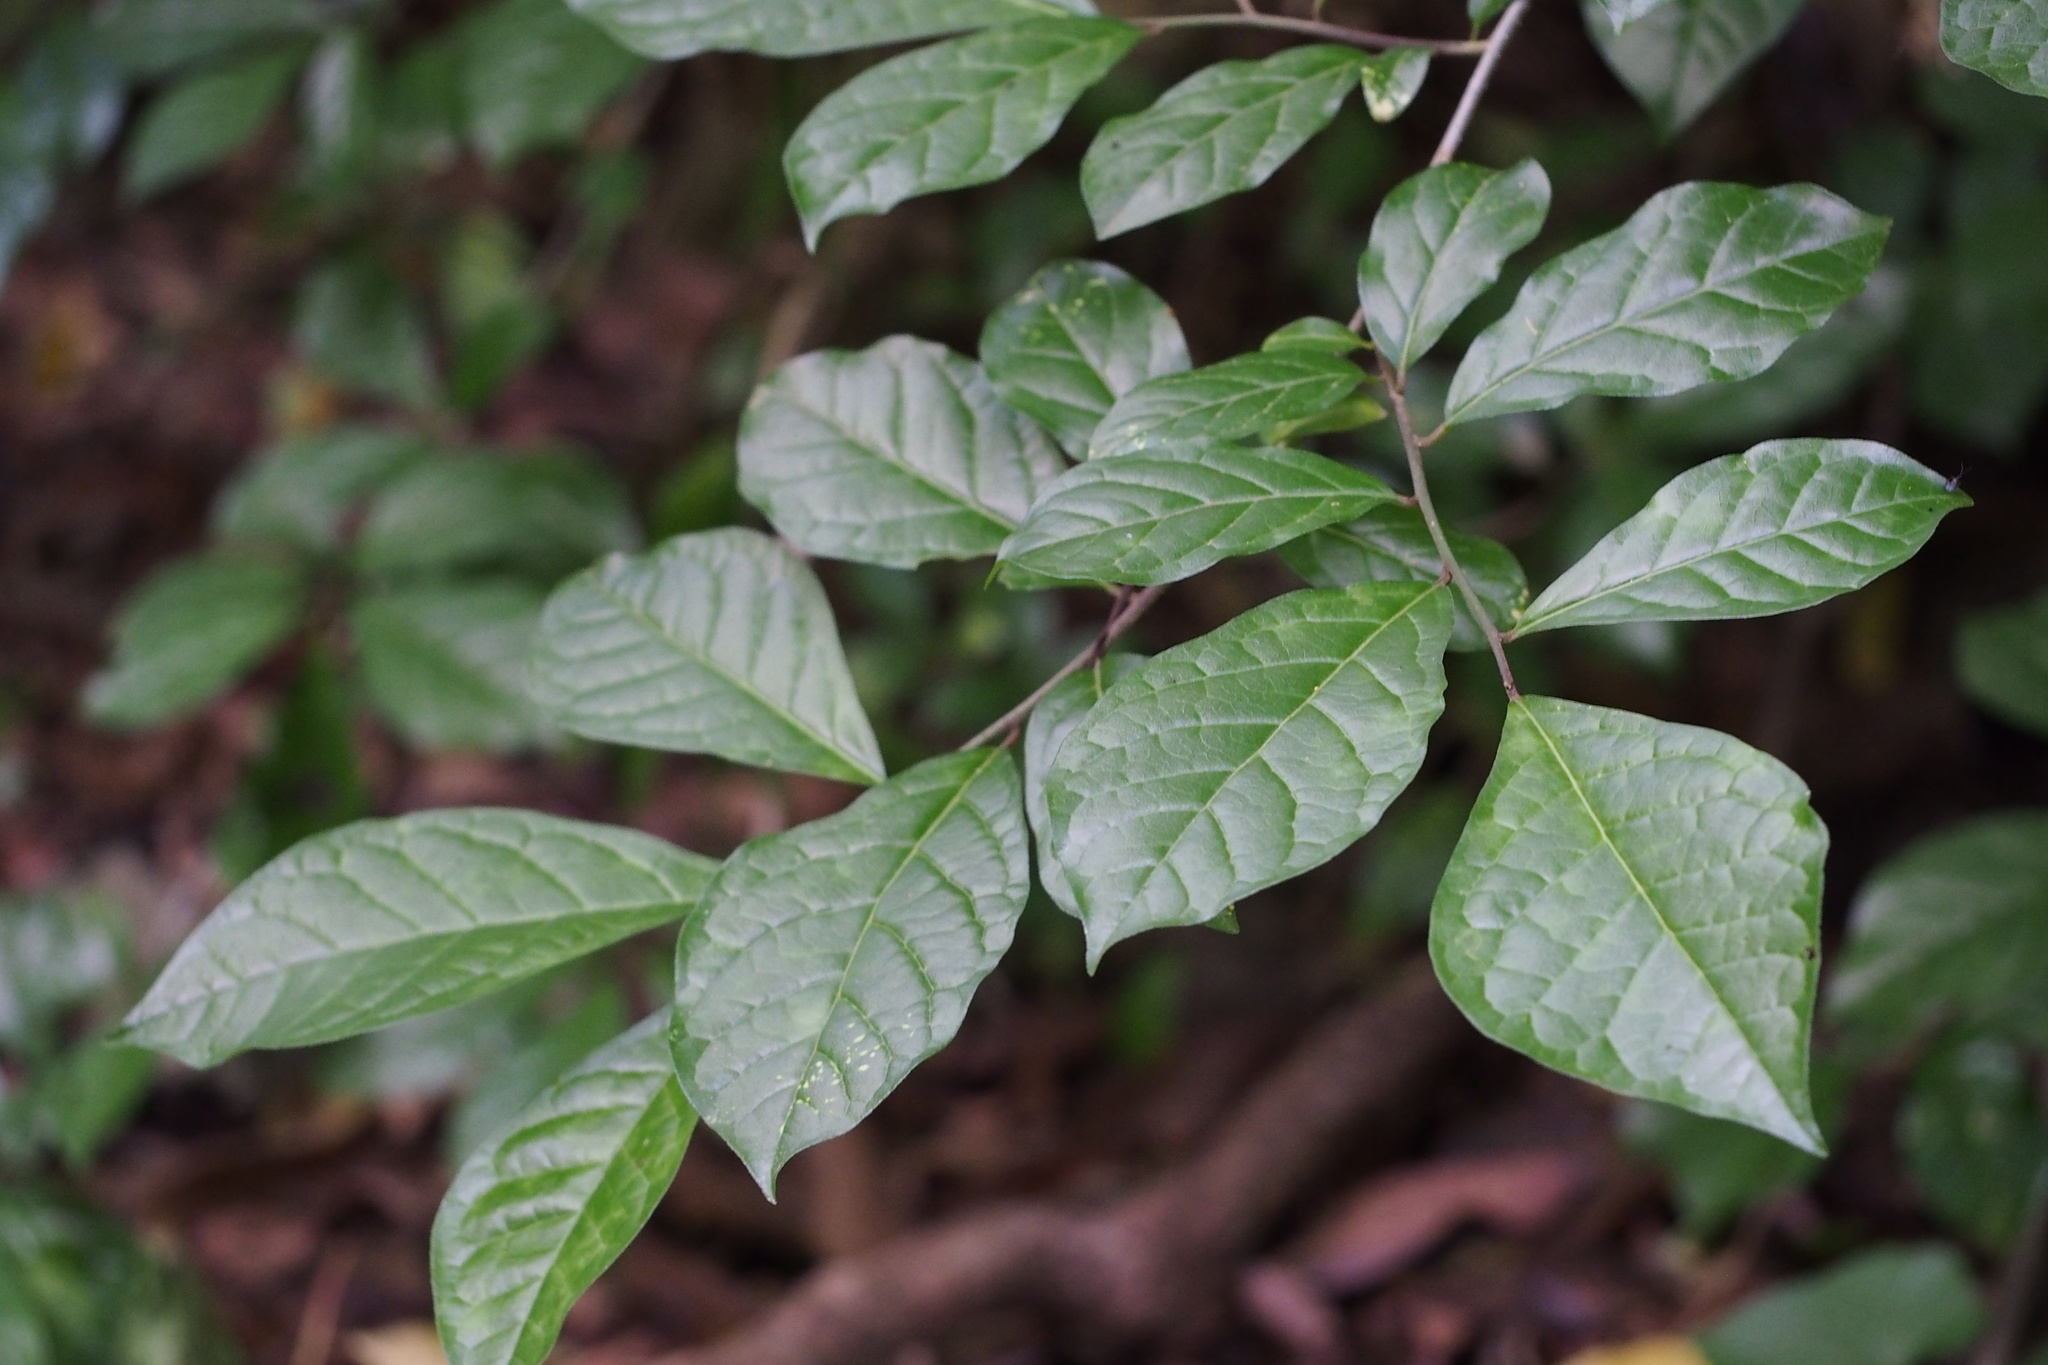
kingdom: Plantae
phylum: Tracheophyta
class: Magnoliopsida
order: Sapindales
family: Rutaceae
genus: Orixa
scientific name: Orixa japonica
